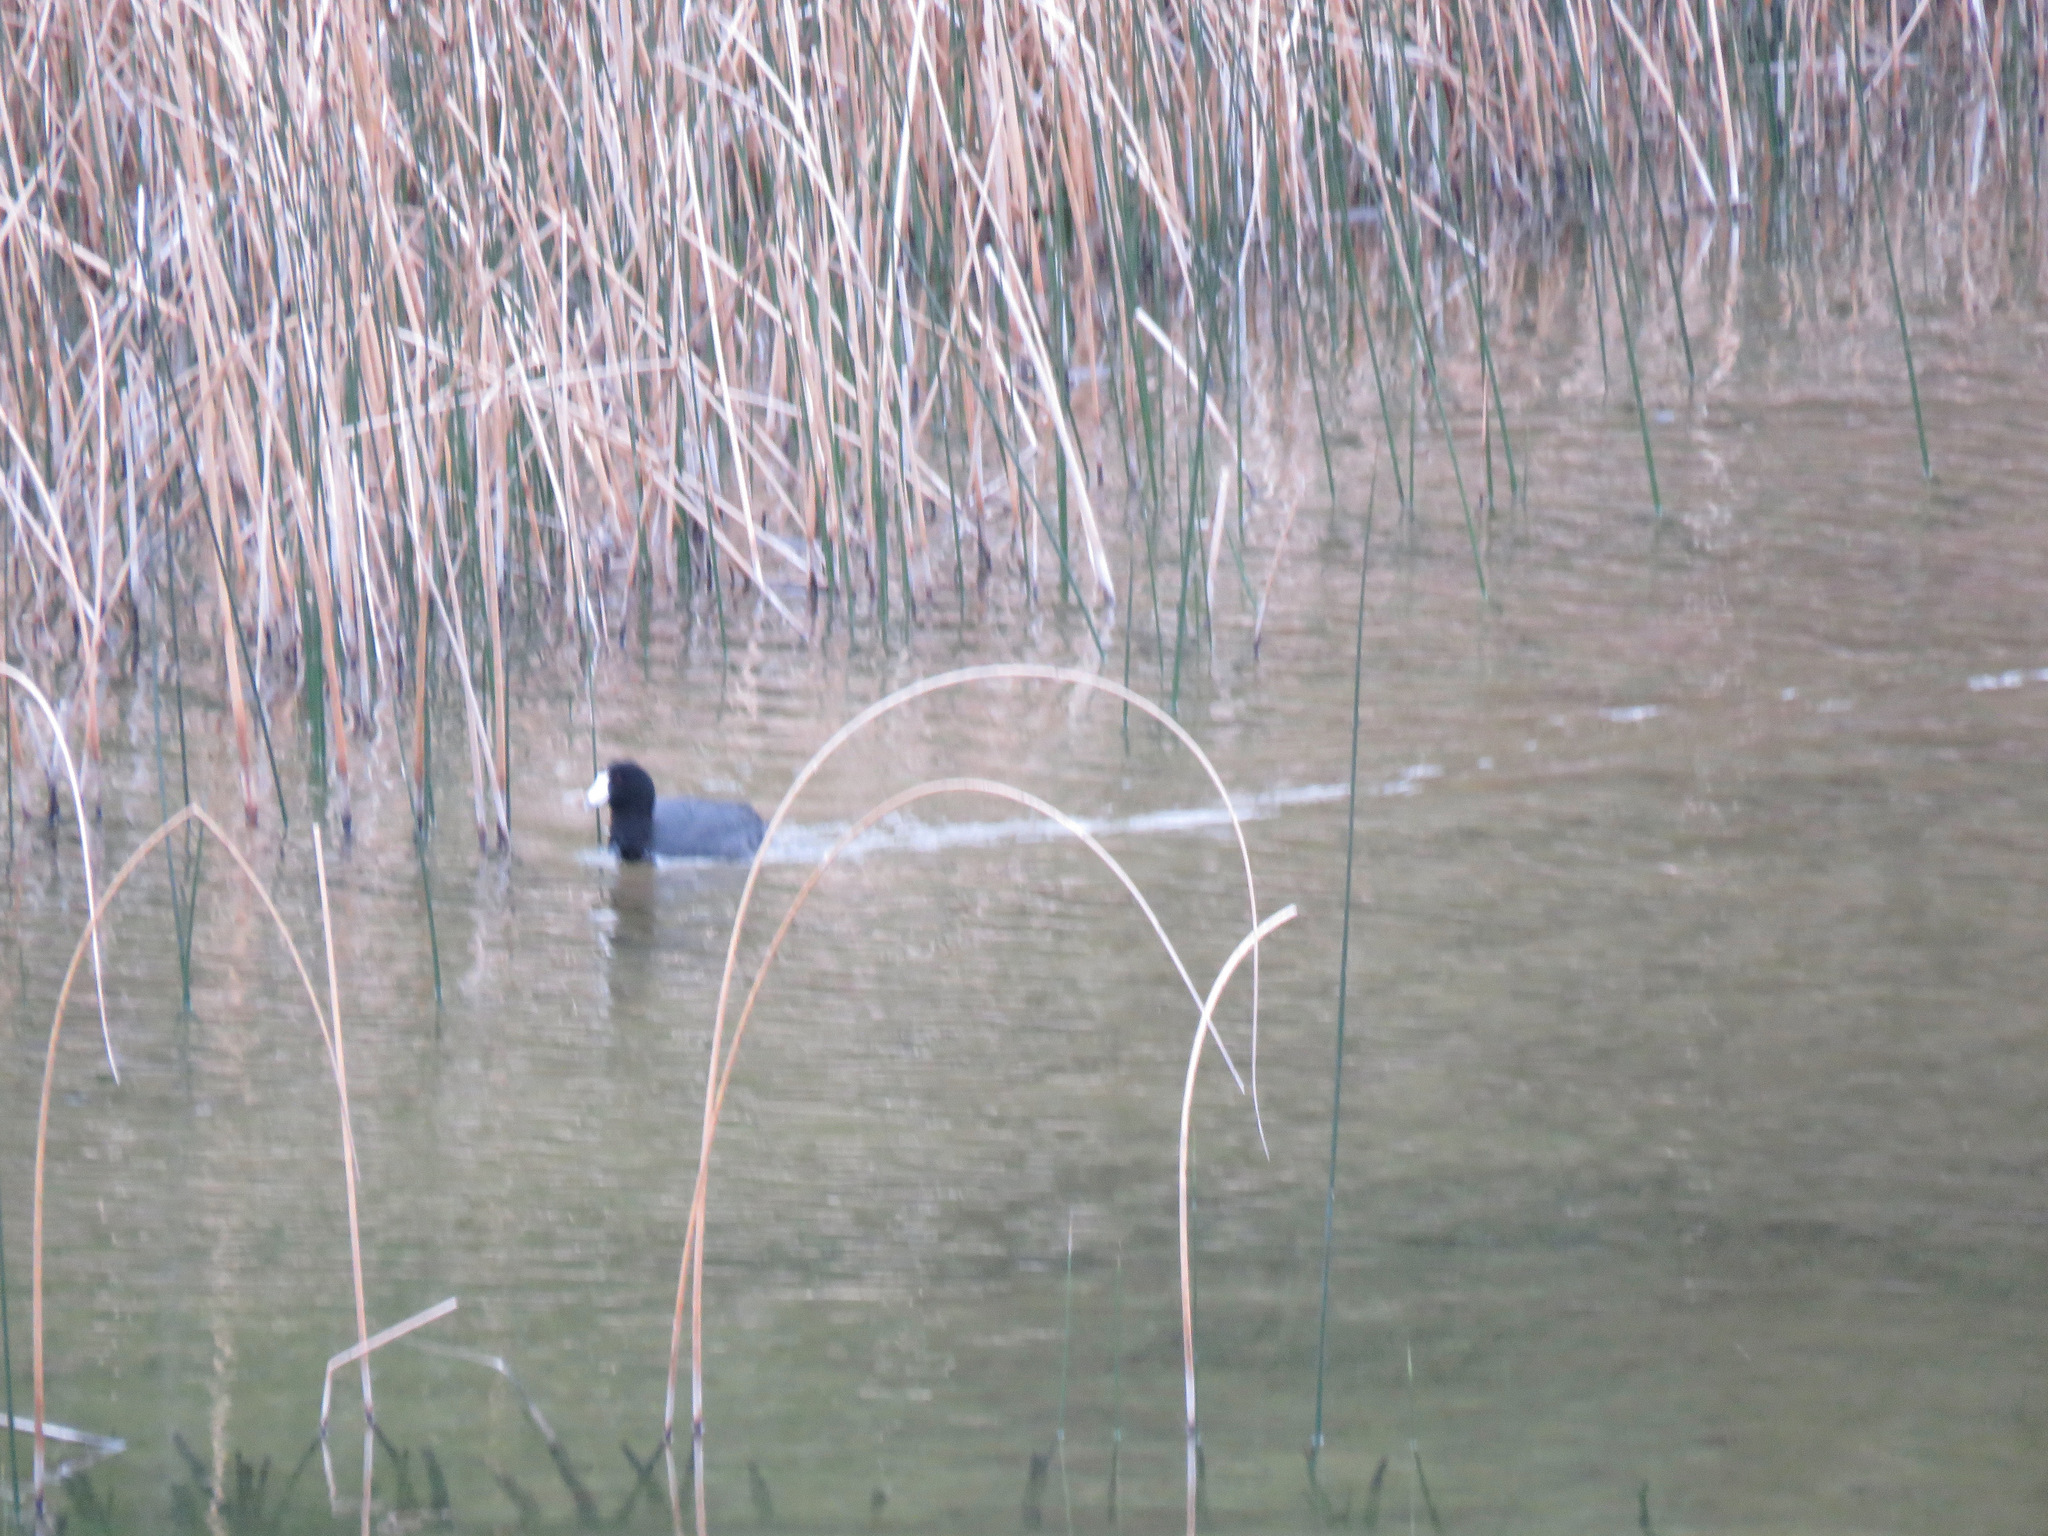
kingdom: Animalia
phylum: Chordata
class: Aves
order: Gruiformes
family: Rallidae
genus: Fulica
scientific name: Fulica americana
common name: American coot
